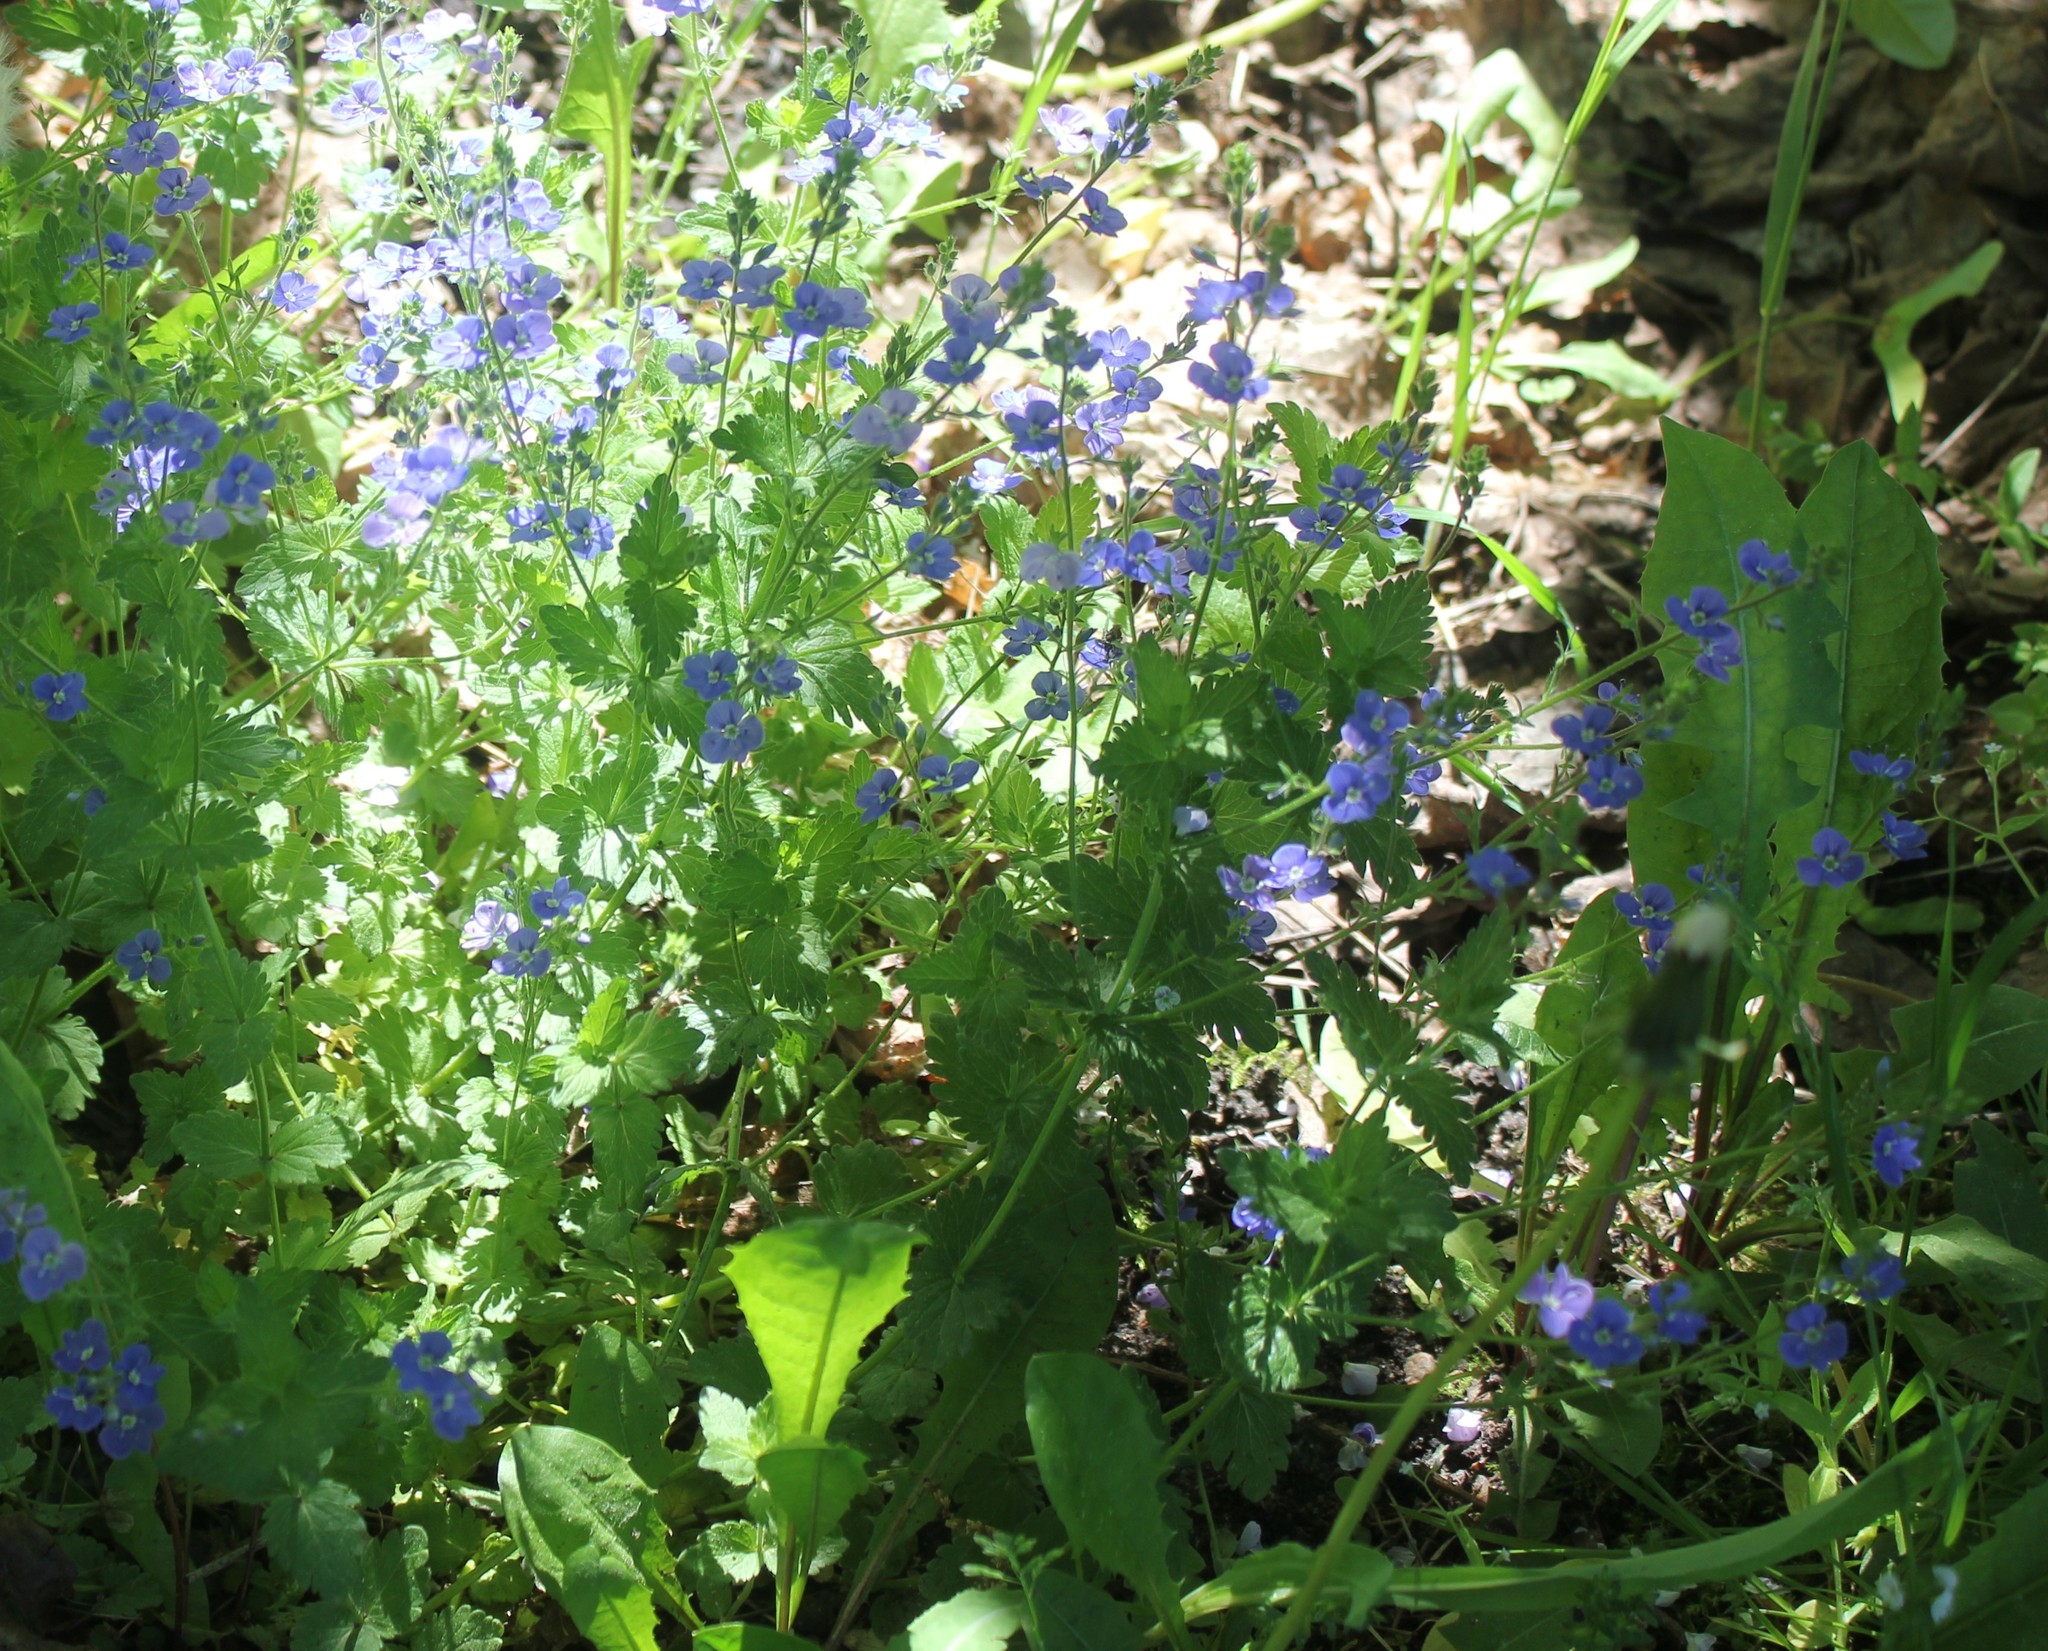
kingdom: Plantae
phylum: Tracheophyta
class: Magnoliopsida
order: Lamiales
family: Plantaginaceae
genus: Veronica
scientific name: Veronica chamaedrys
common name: Germander speedwell
